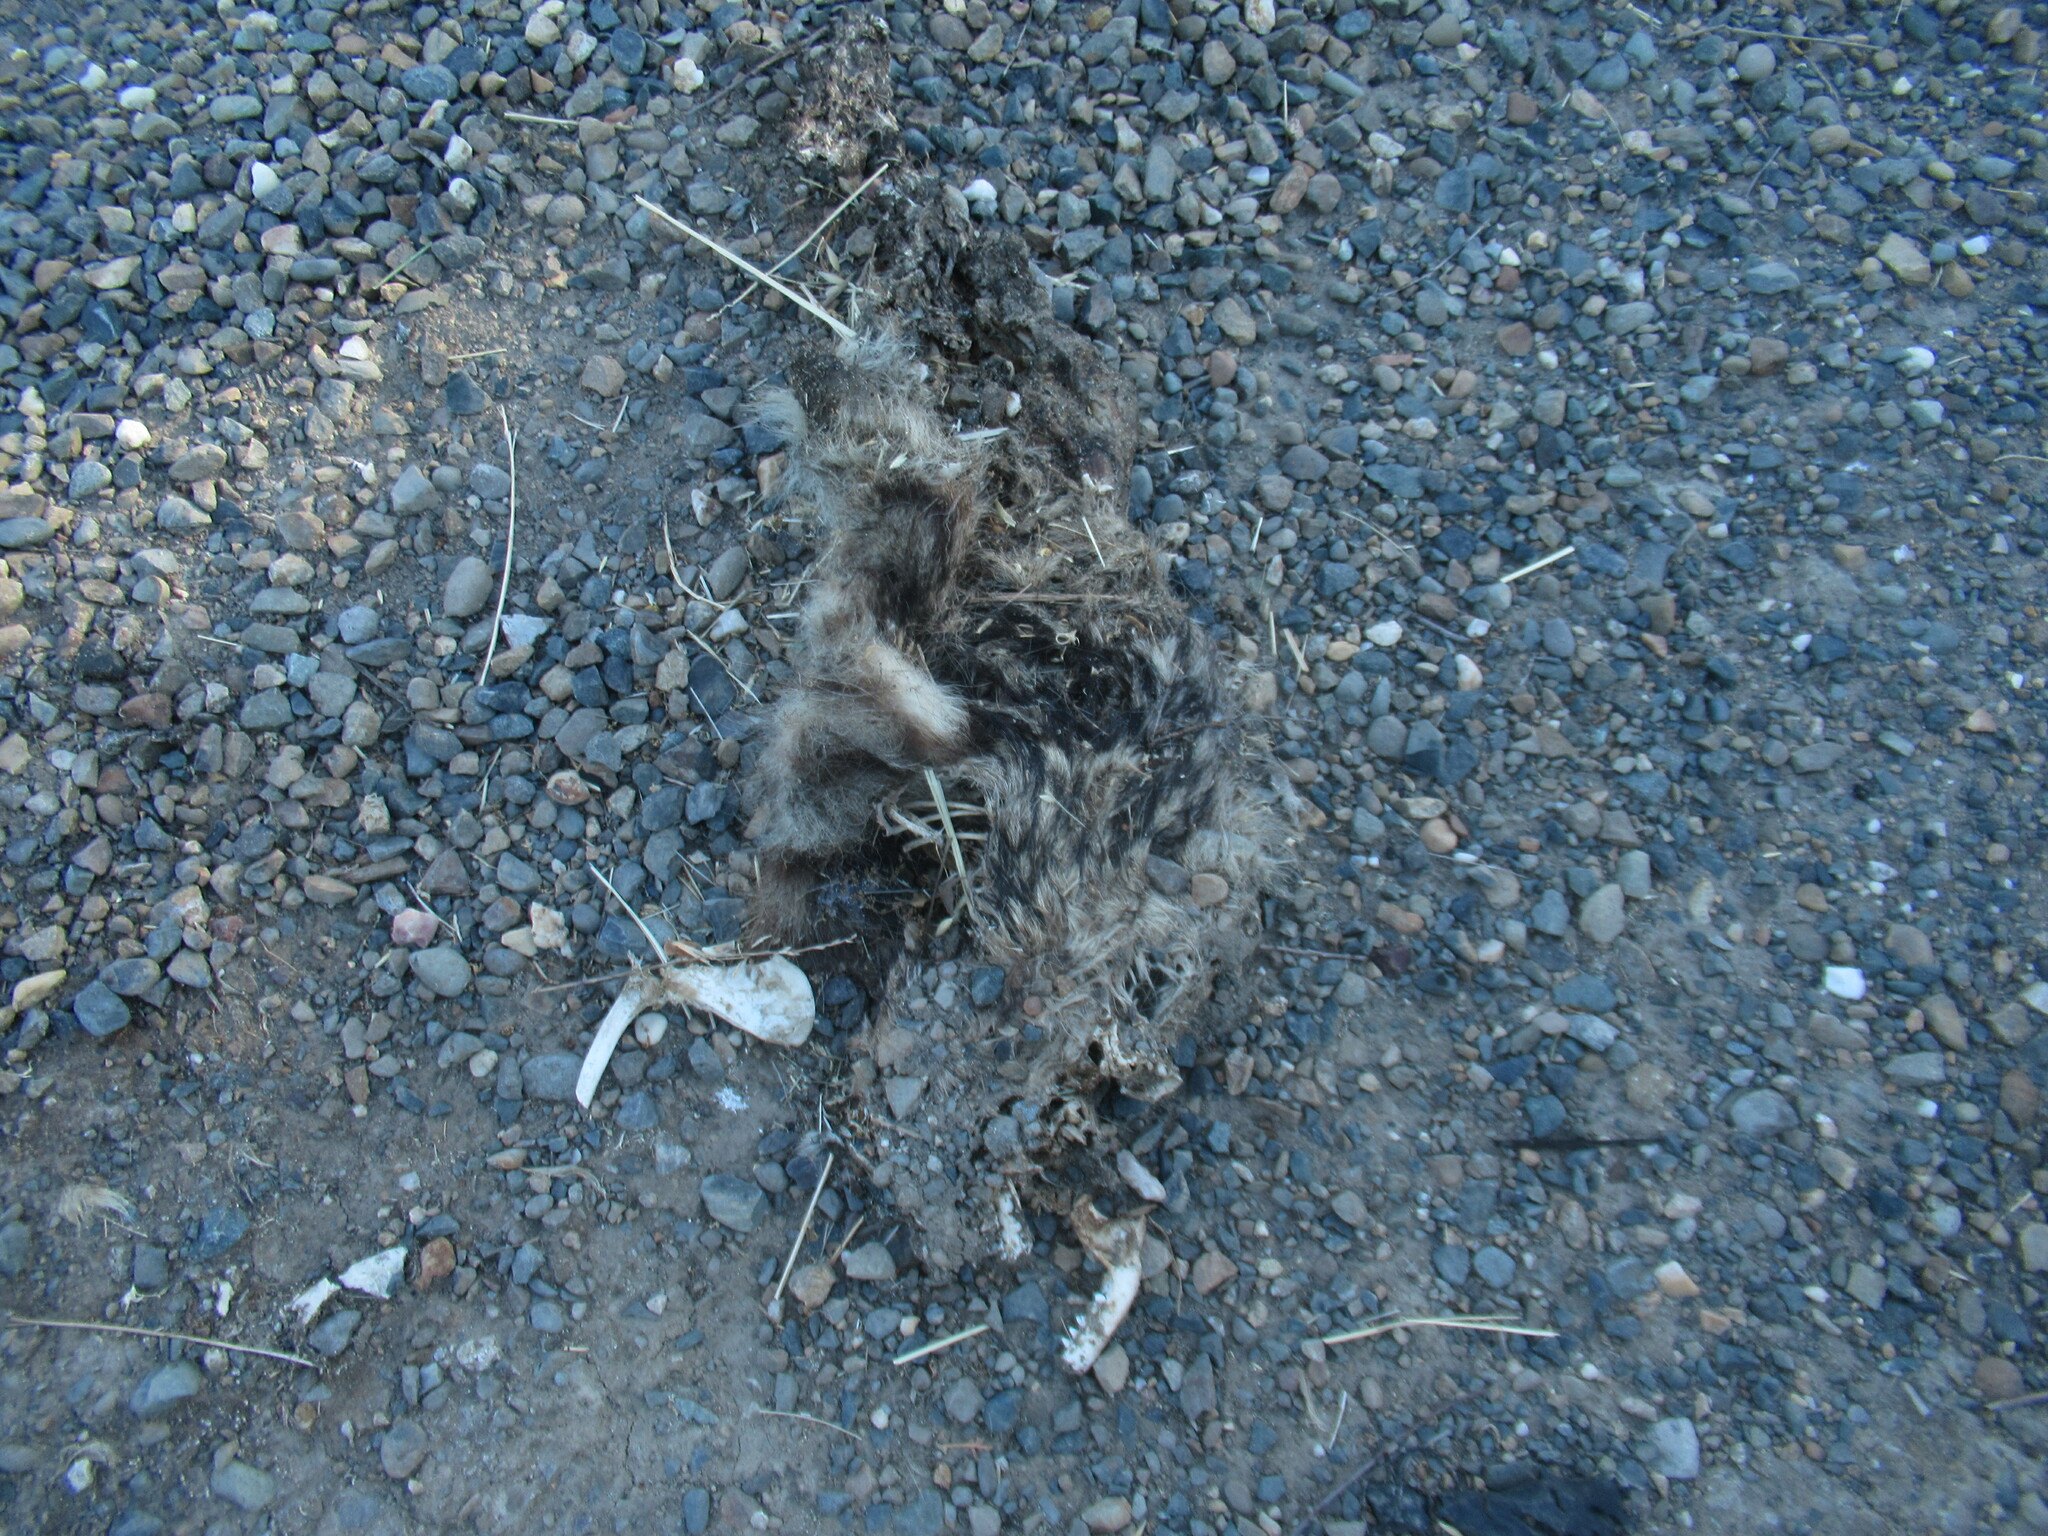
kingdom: Animalia
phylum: Chordata
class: Mammalia
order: Carnivora
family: Procyonidae
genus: Procyon
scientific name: Procyon lotor
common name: Raccoon
